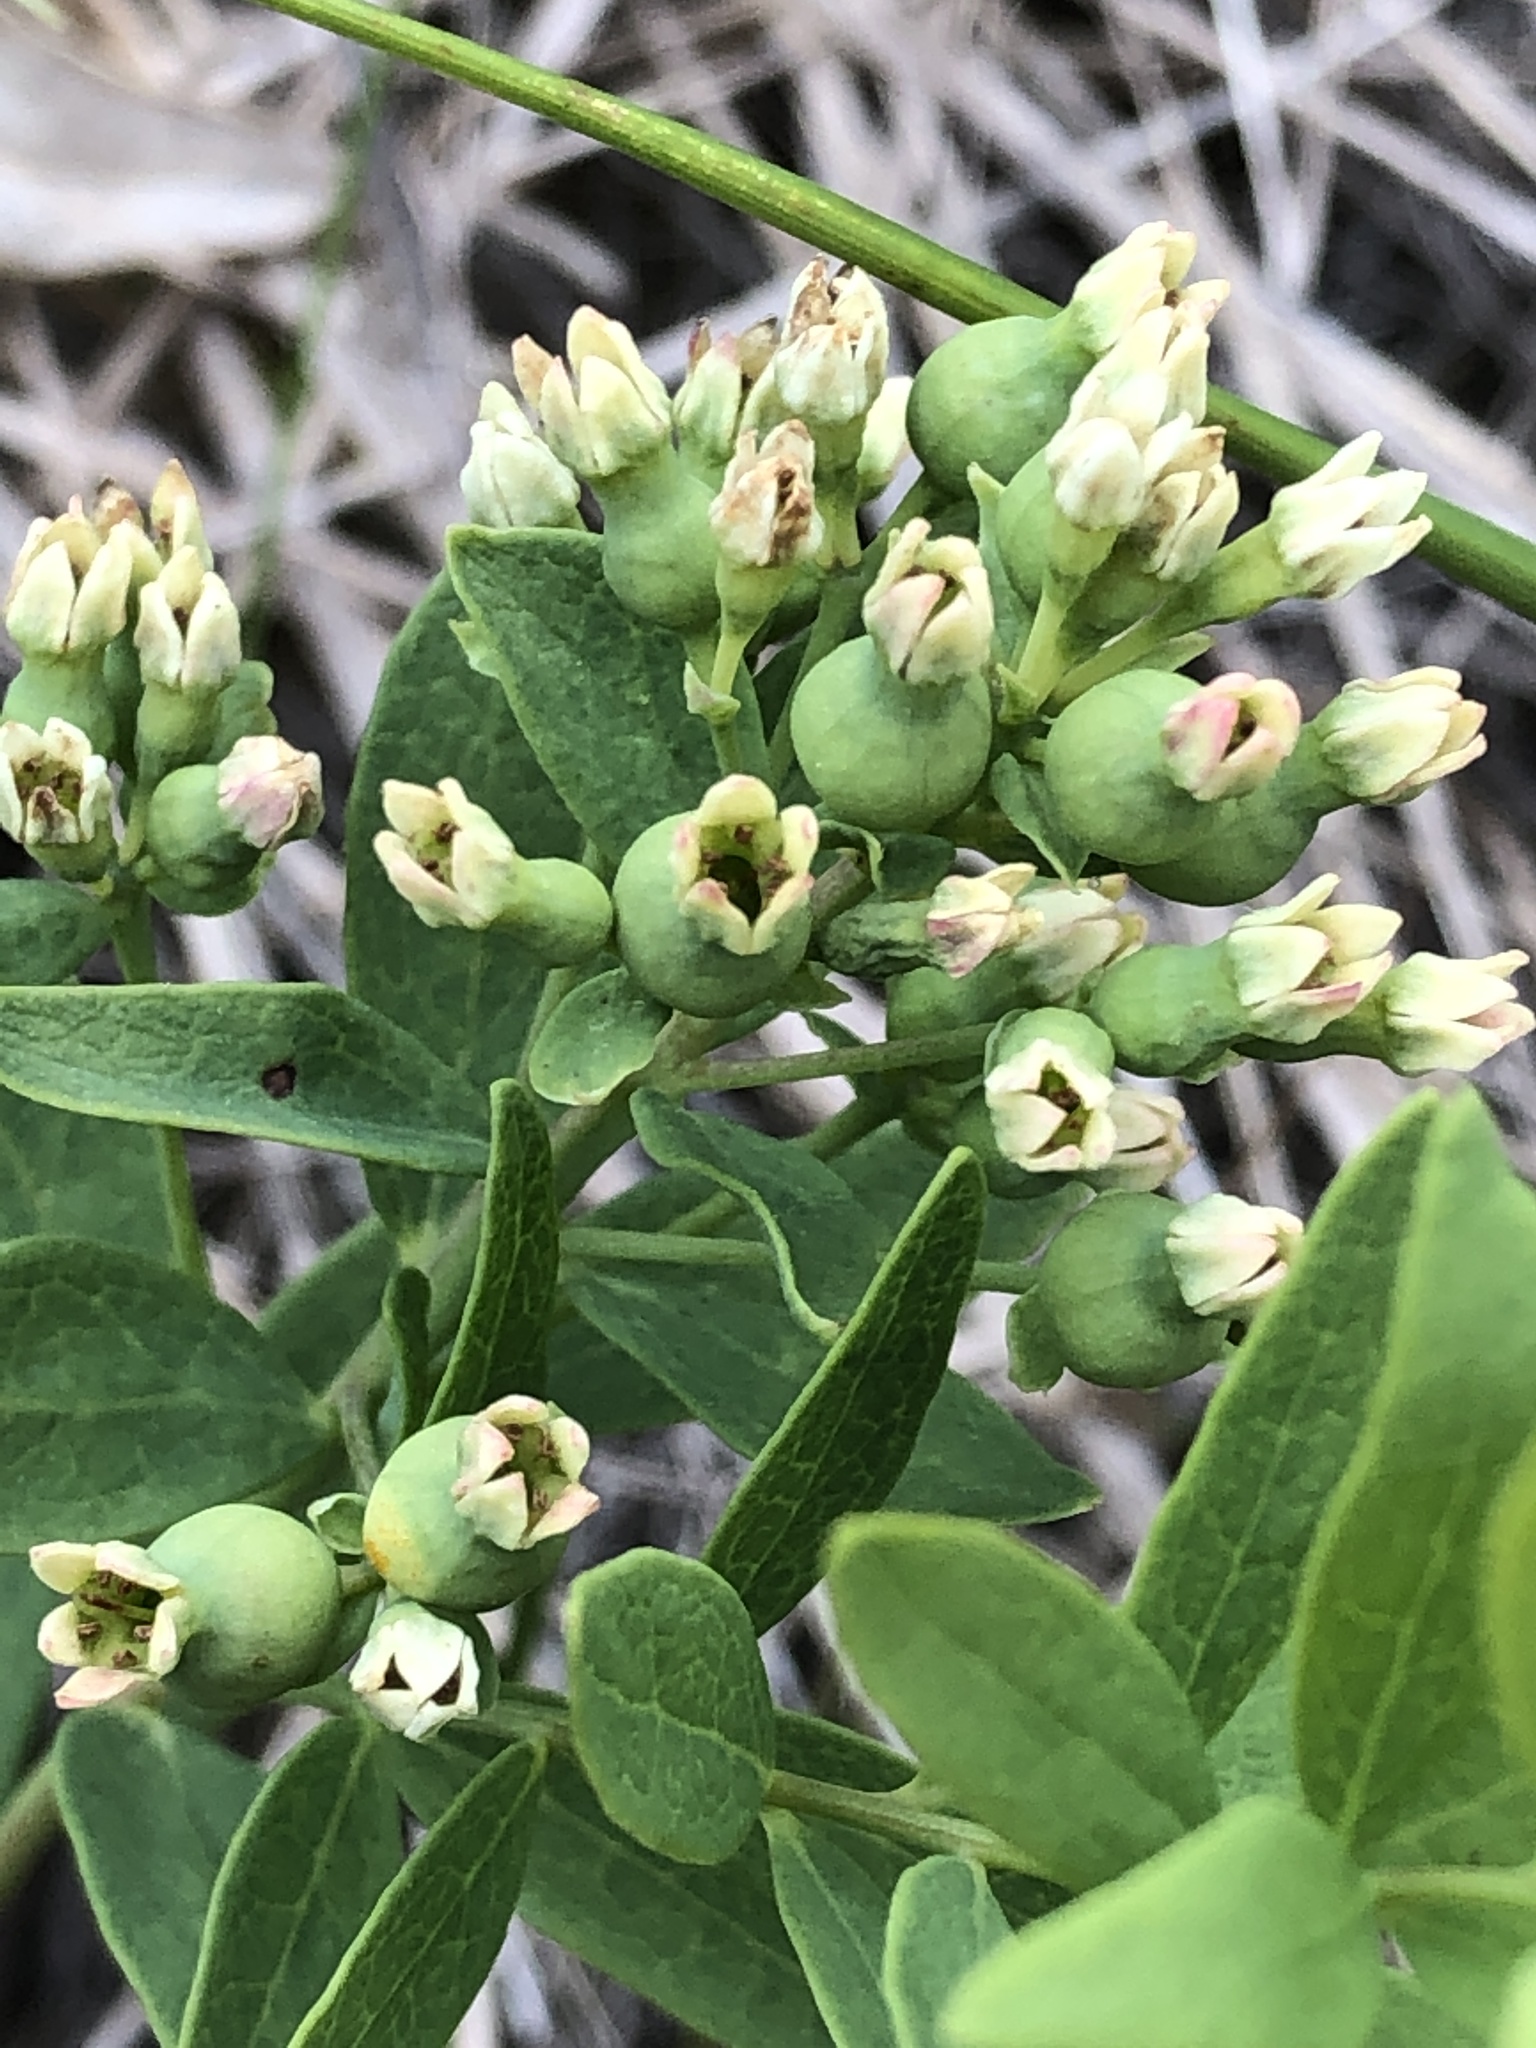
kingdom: Plantae
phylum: Tracheophyta
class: Magnoliopsida
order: Santalales
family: Comandraceae
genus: Comandra
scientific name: Comandra umbellata
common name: Bastard toadflax
